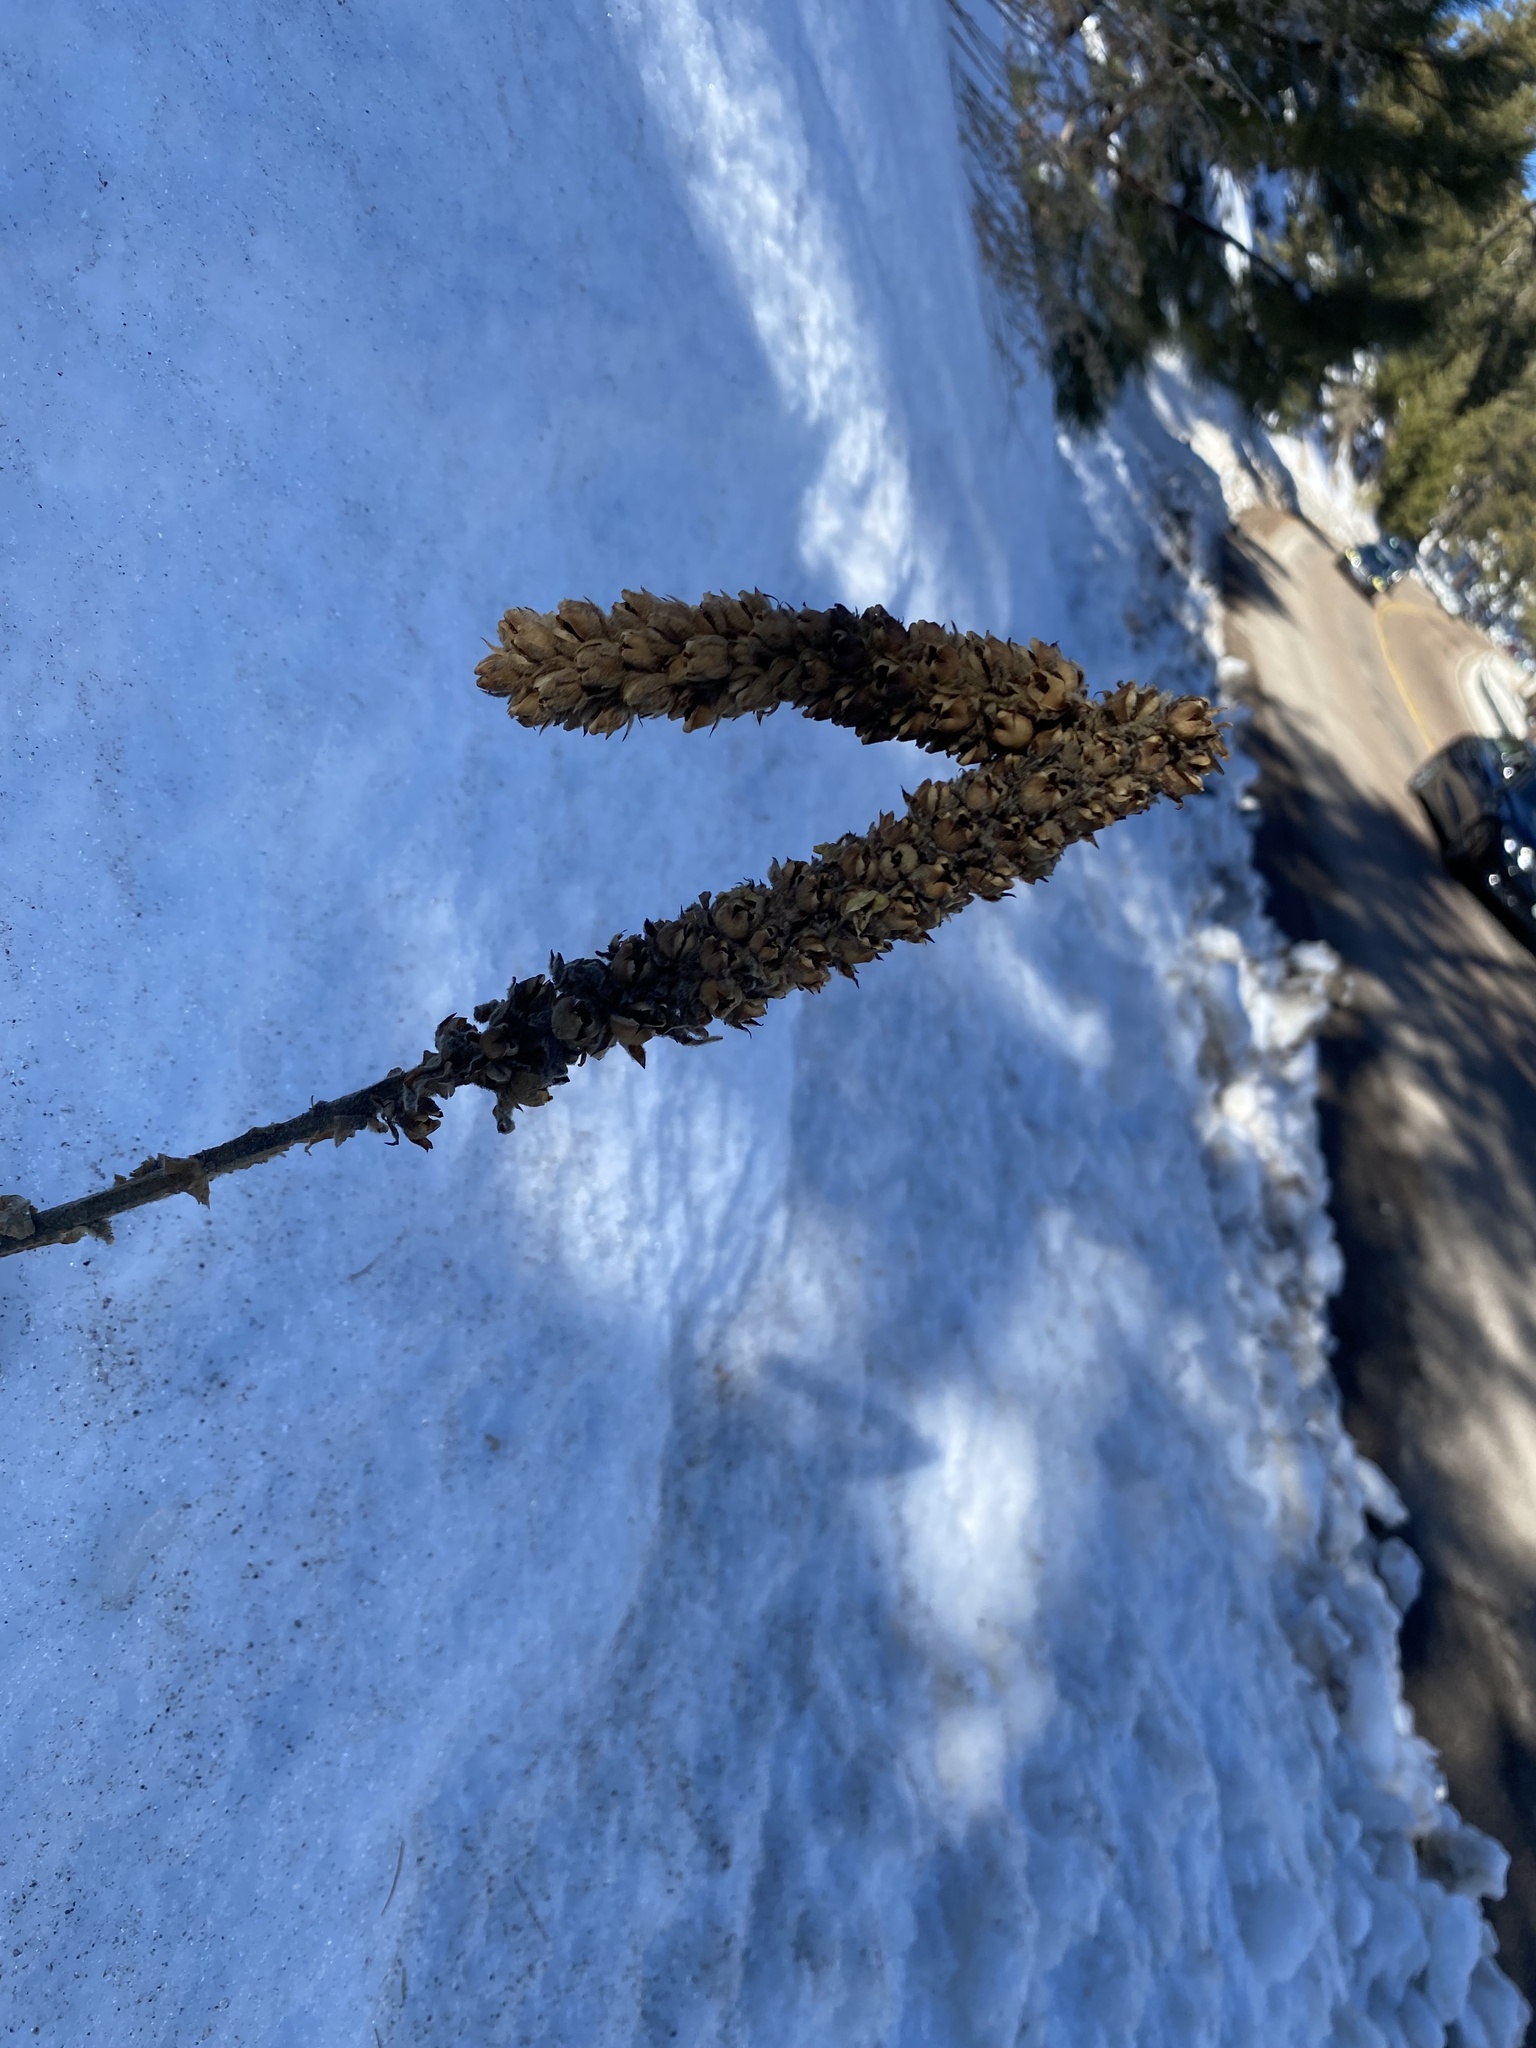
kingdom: Plantae
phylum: Tracheophyta
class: Magnoliopsida
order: Lamiales
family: Scrophulariaceae
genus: Verbascum
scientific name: Verbascum thapsus
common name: Common mullein
